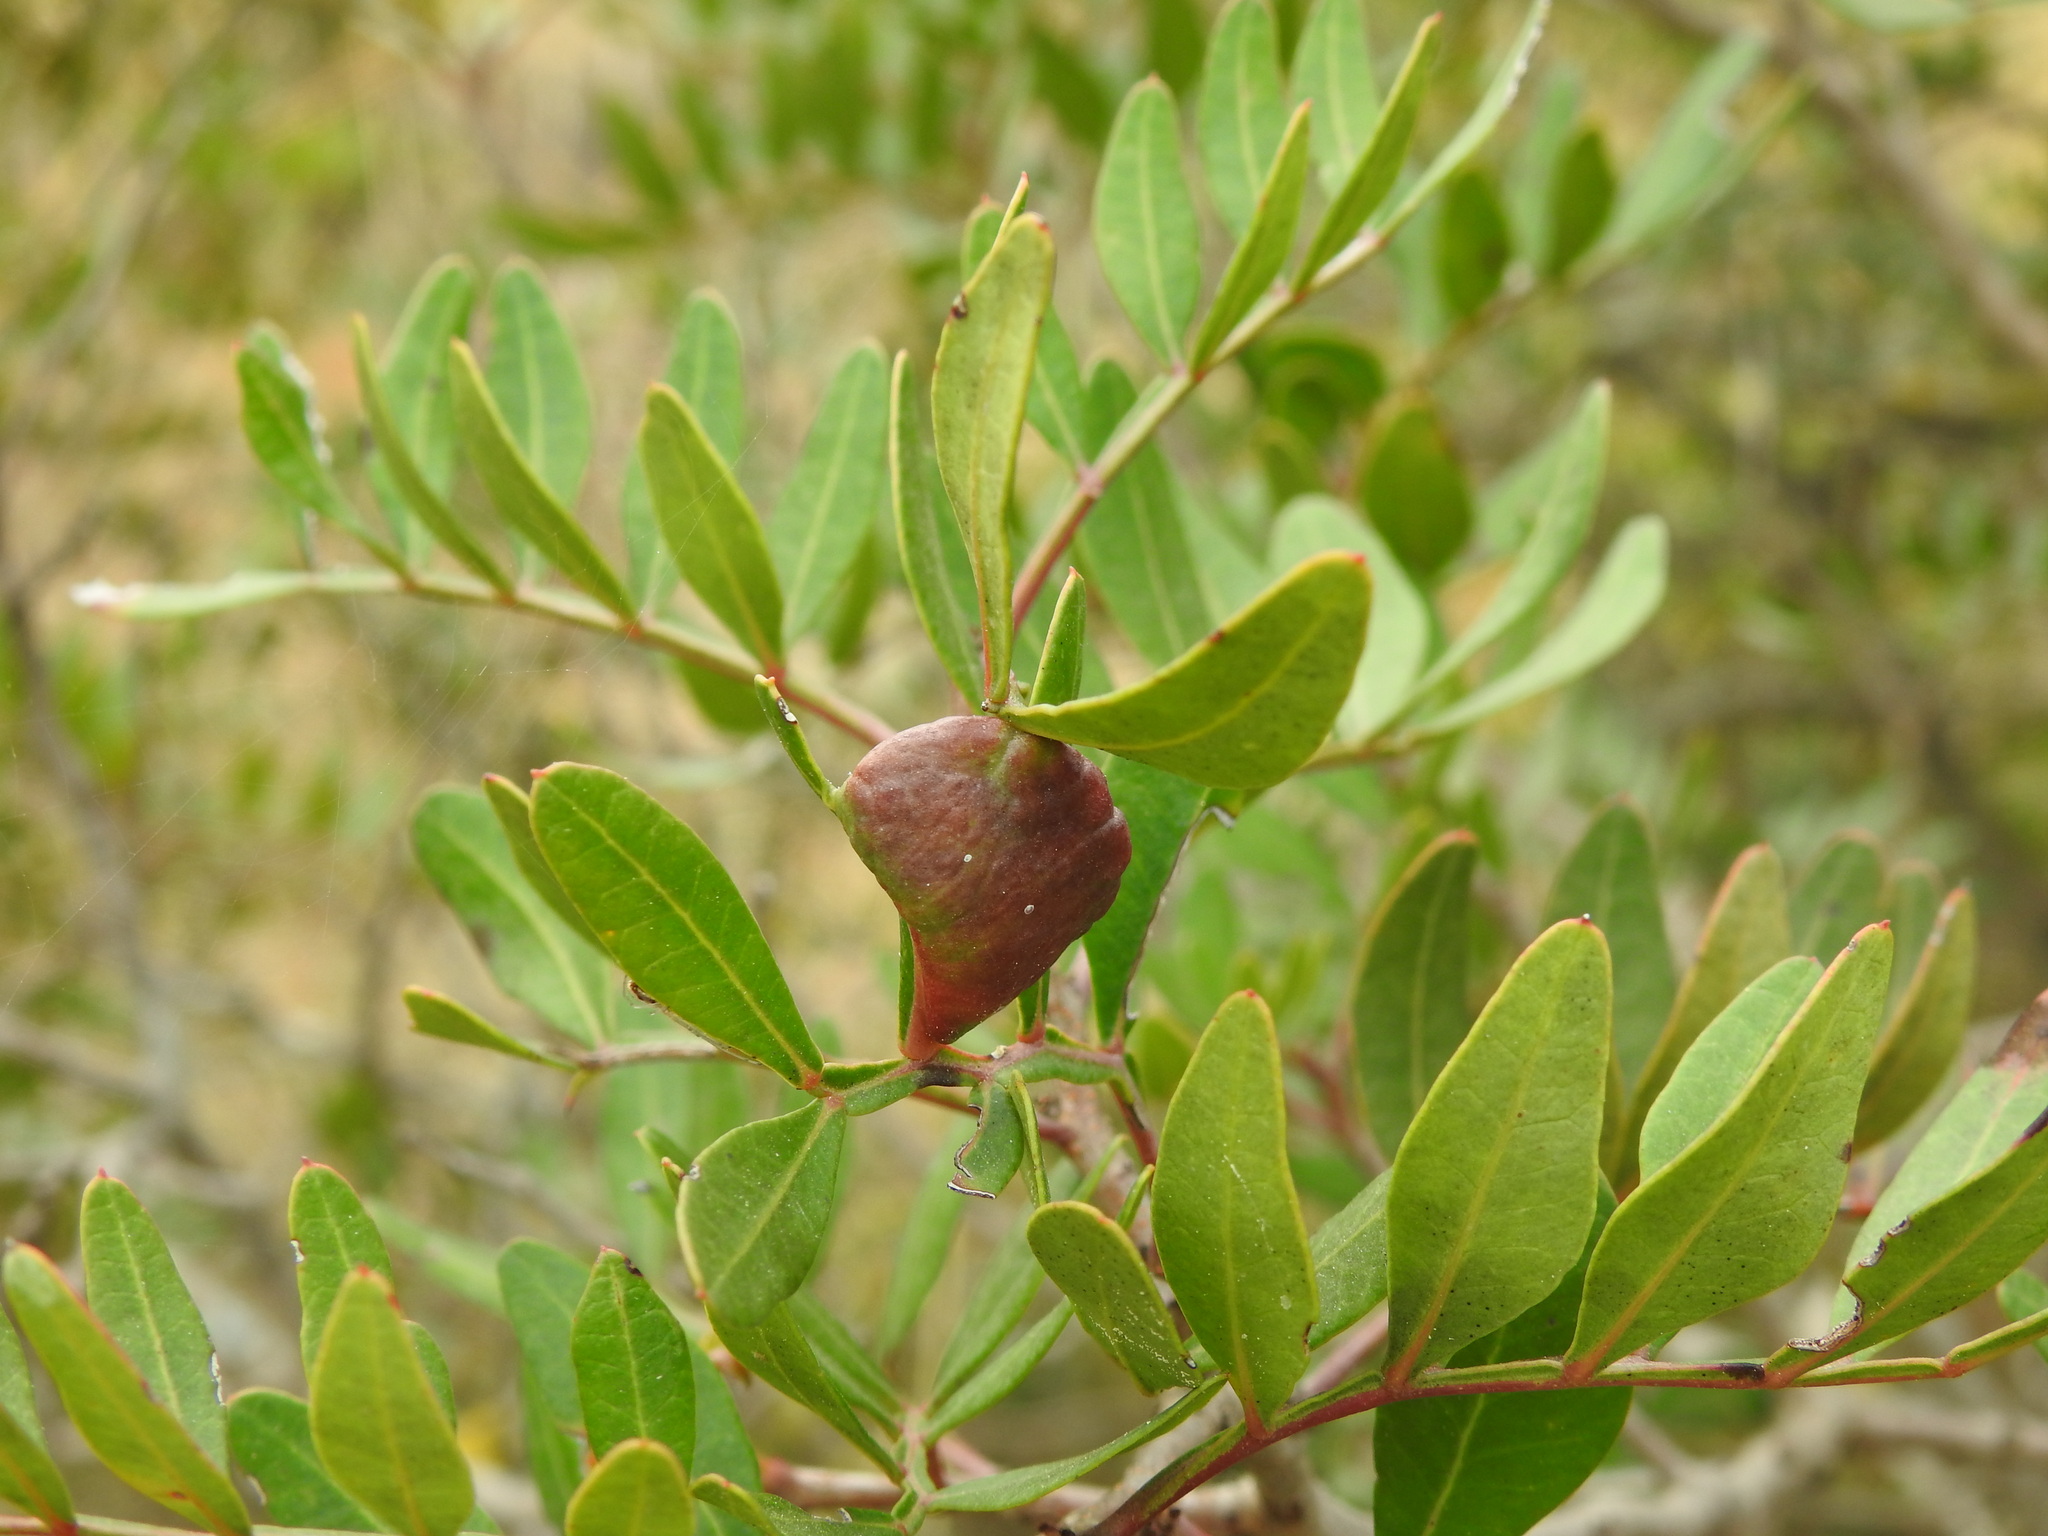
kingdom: Animalia
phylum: Arthropoda
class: Insecta
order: Hemiptera
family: Aphididae
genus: Aploneura
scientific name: Aploneura lentisci
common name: Mealy grass root aphid
